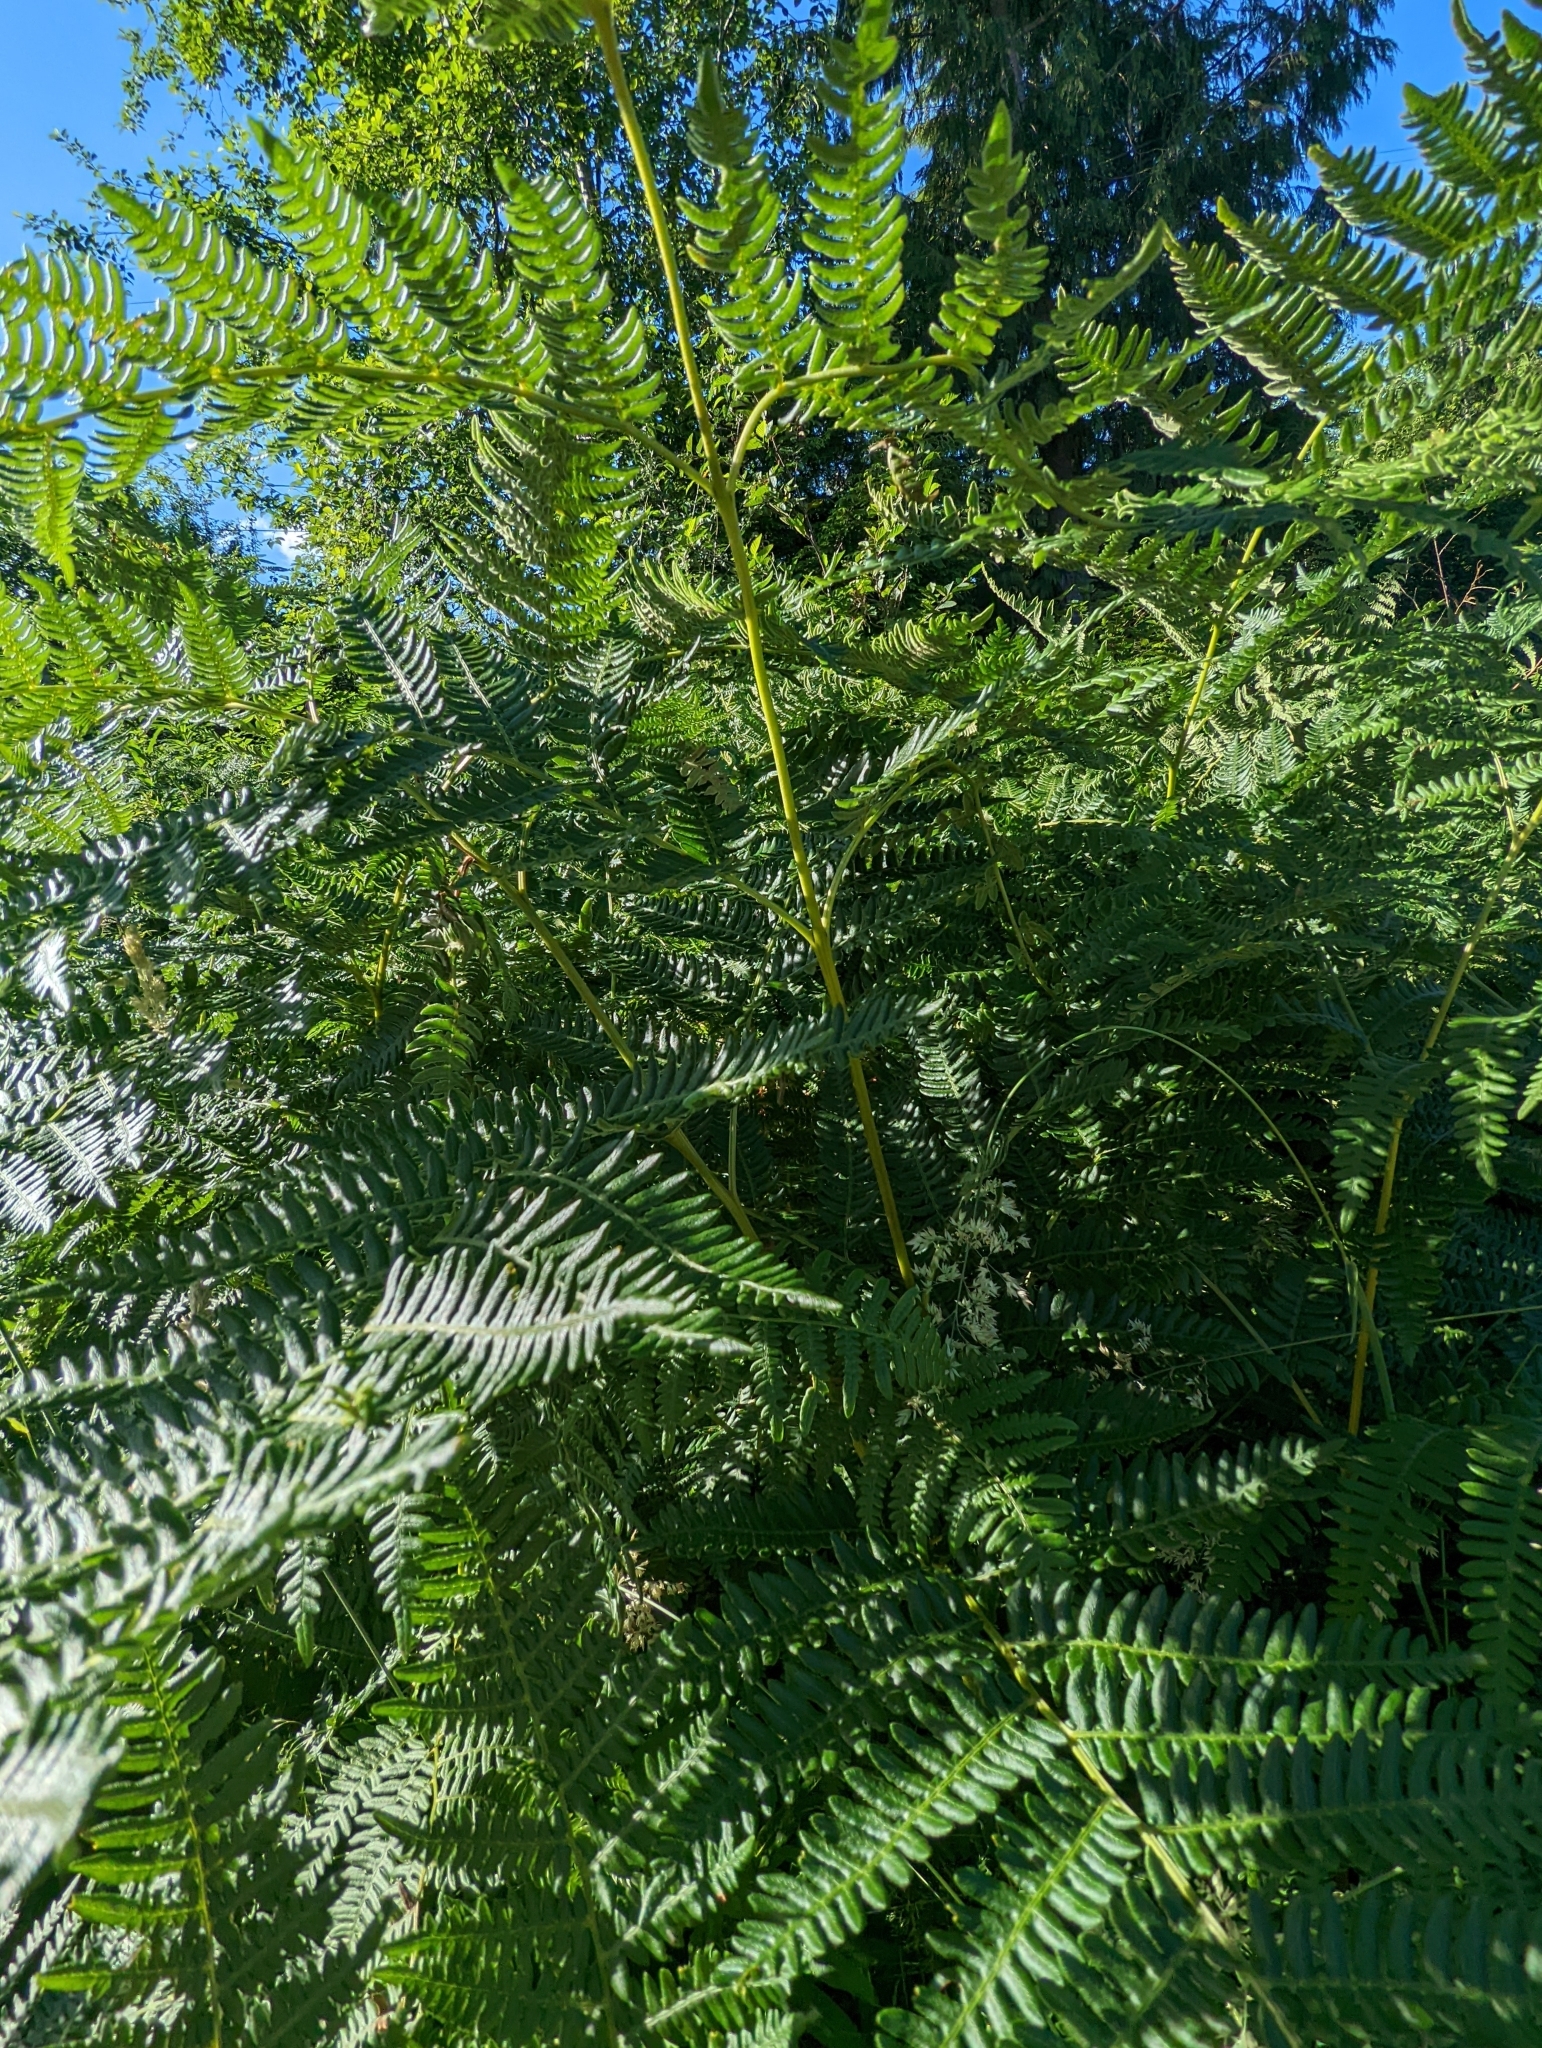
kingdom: Plantae
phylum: Tracheophyta
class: Polypodiopsida
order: Polypodiales
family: Dennstaedtiaceae
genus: Pteridium
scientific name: Pteridium aquilinum
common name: Bracken
